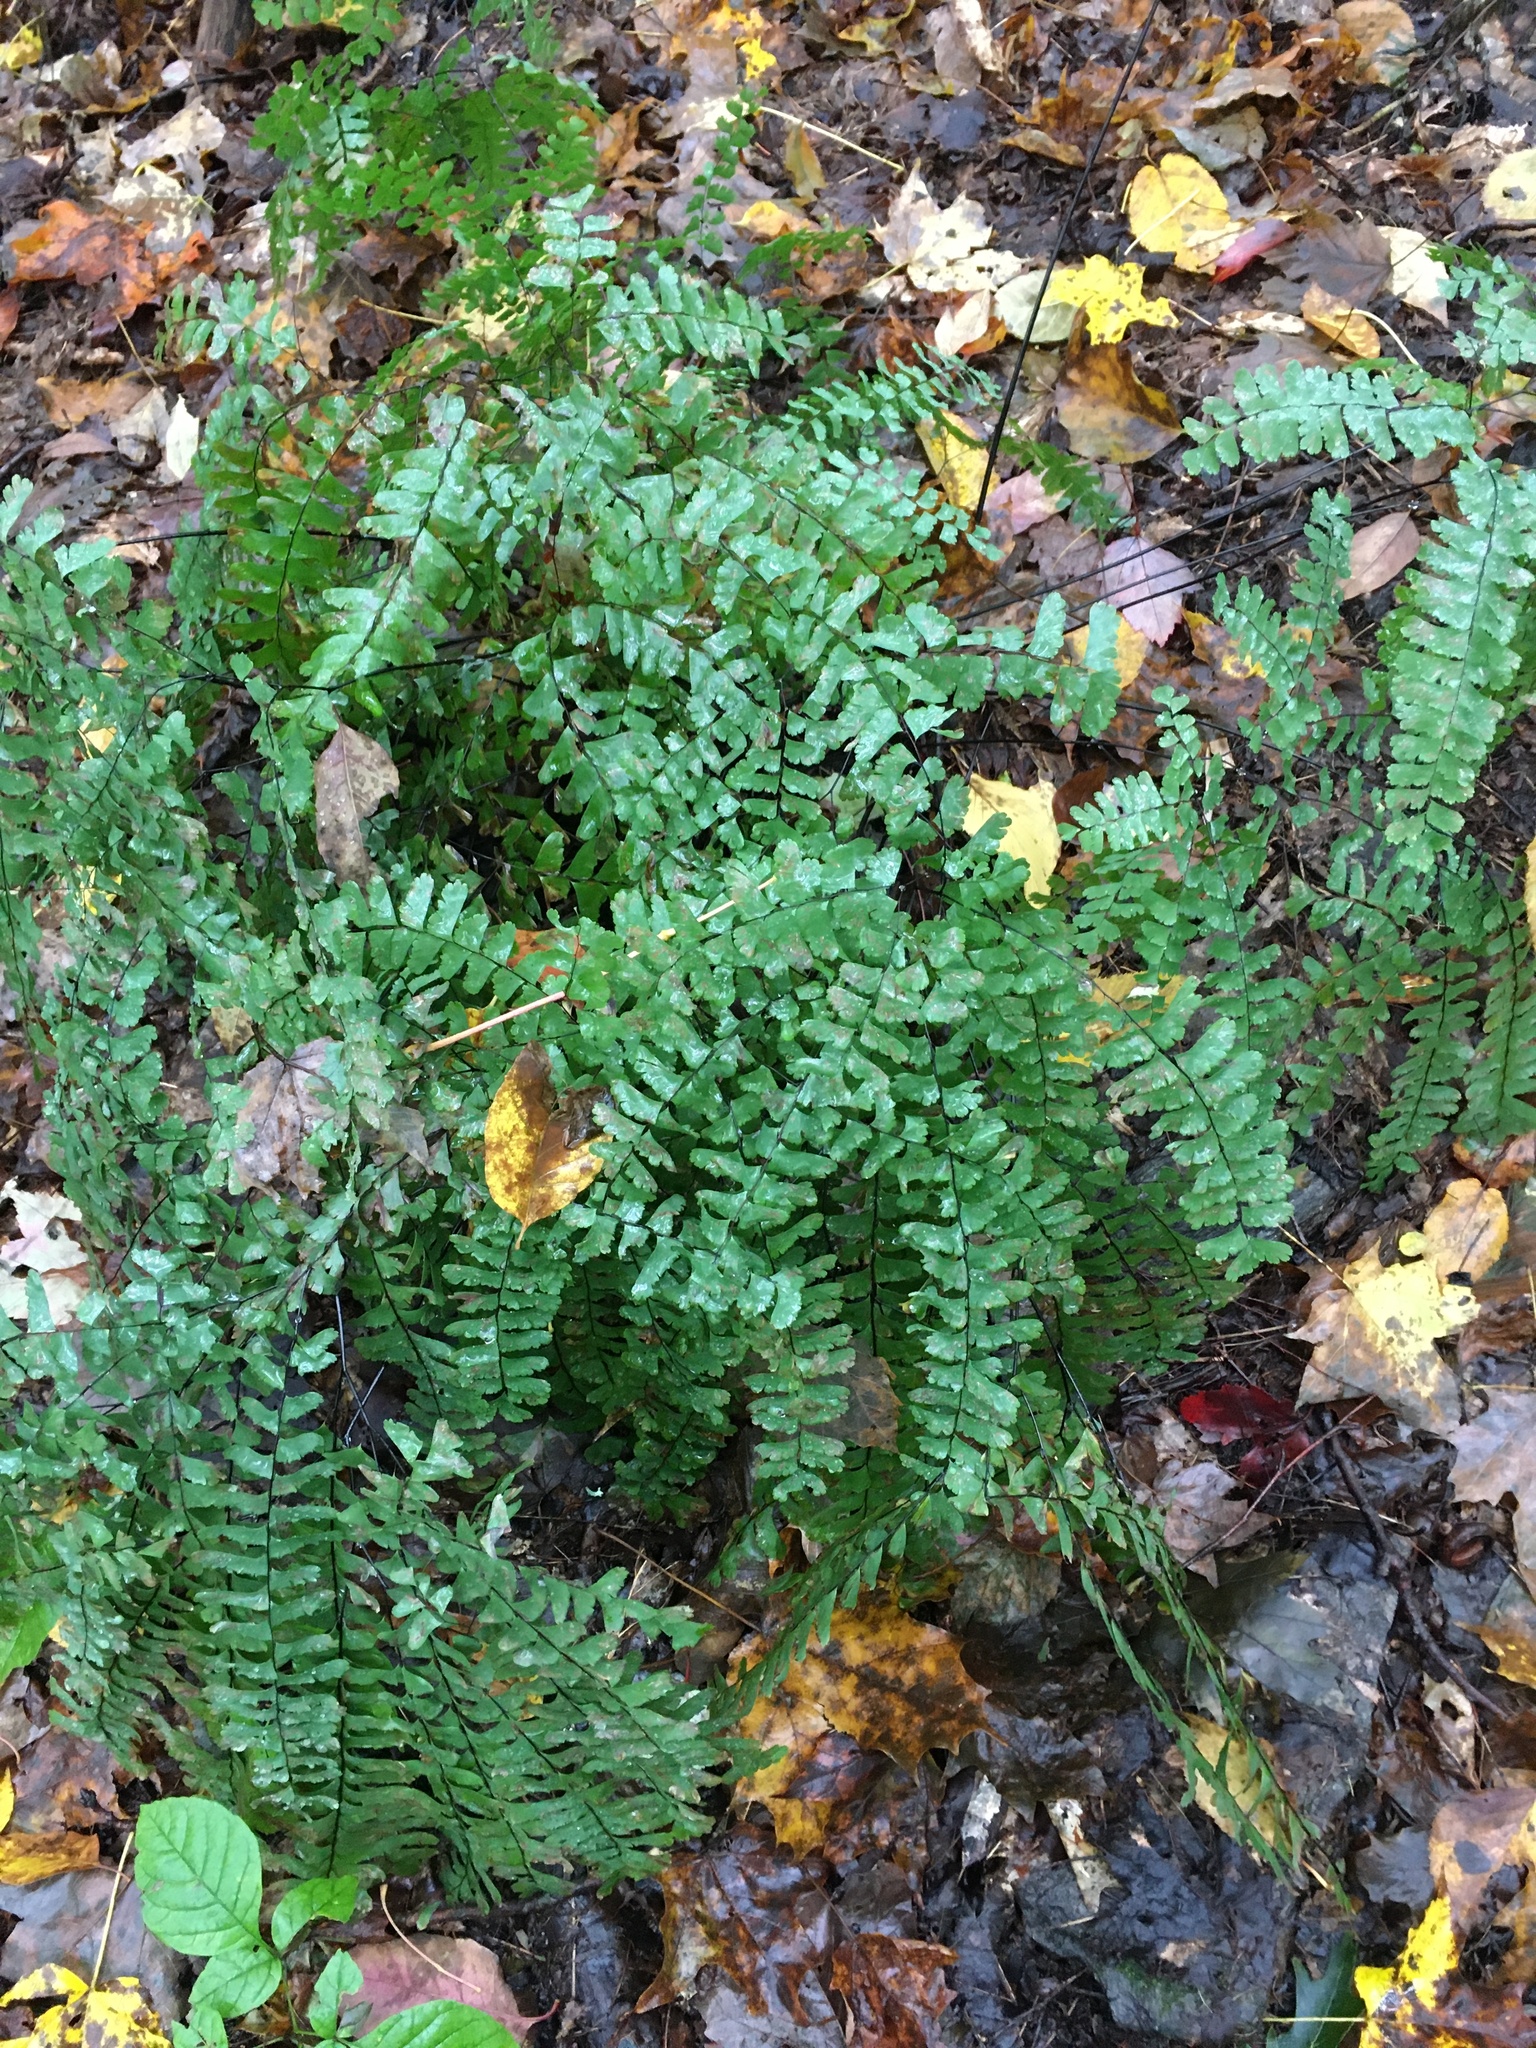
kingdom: Plantae
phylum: Tracheophyta
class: Polypodiopsida
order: Polypodiales
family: Pteridaceae
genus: Adiantum
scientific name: Adiantum pedatum
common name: Five-finger fern
